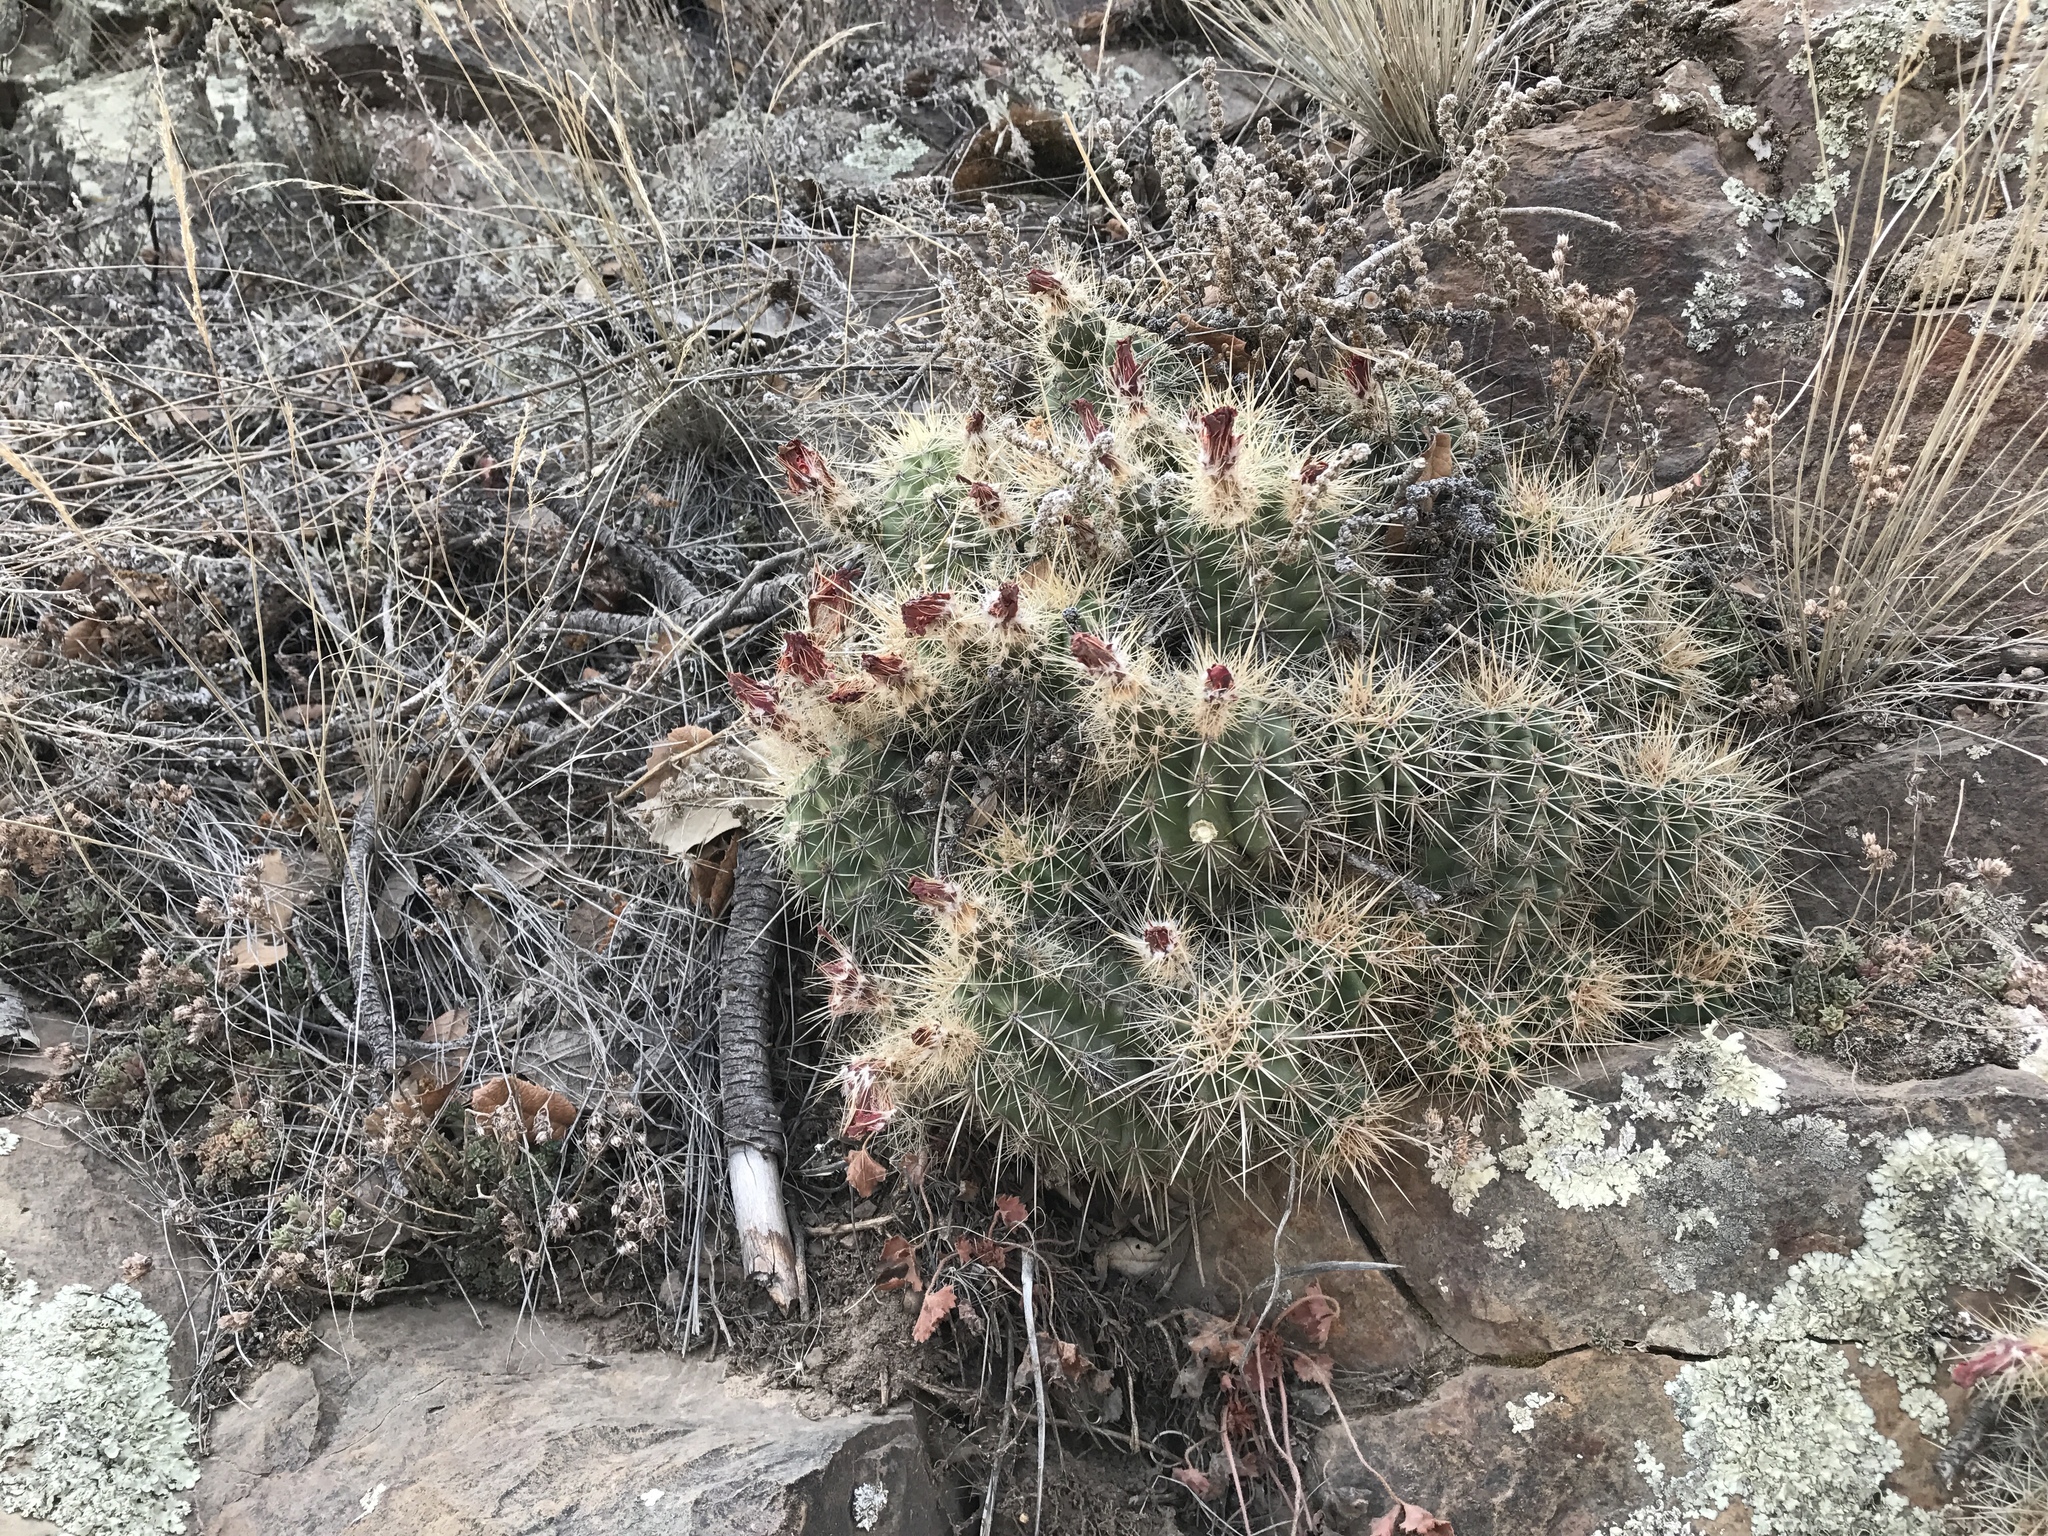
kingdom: Plantae
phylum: Tracheophyta
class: Magnoliopsida
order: Caryophyllales
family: Cactaceae
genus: Echinocereus
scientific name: Echinocereus coccineus
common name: Scarlet hedgehog cactus
